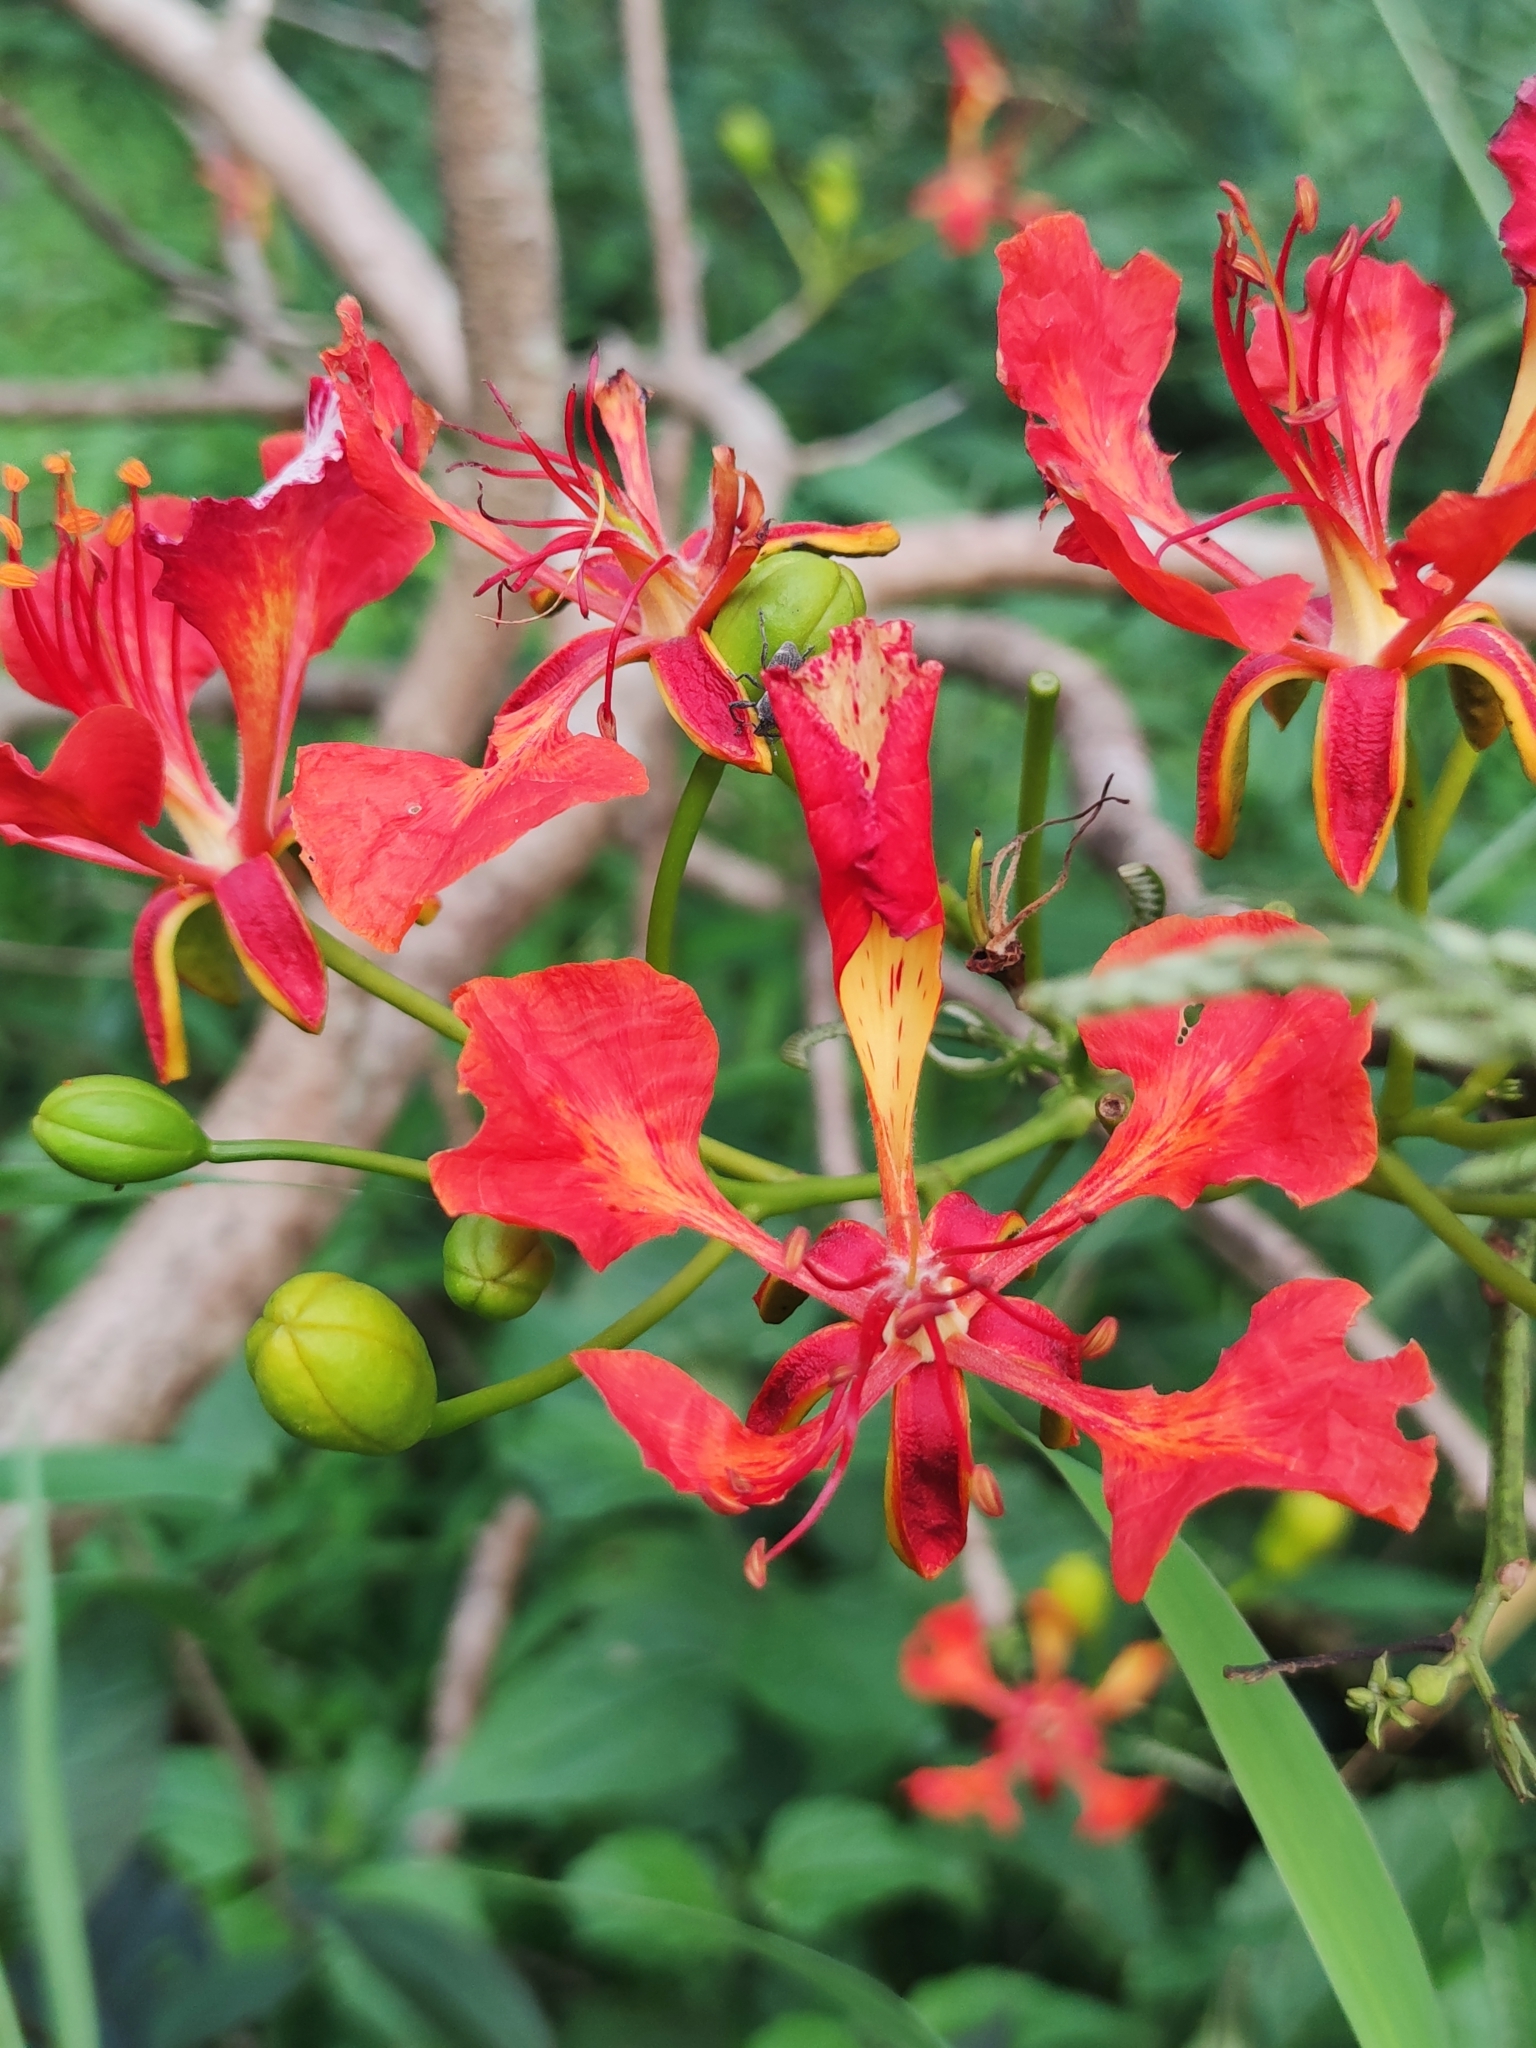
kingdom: Plantae
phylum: Tracheophyta
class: Magnoliopsida
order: Fabales
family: Fabaceae
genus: Delonix
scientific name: Delonix regia
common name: Royal poinciana
